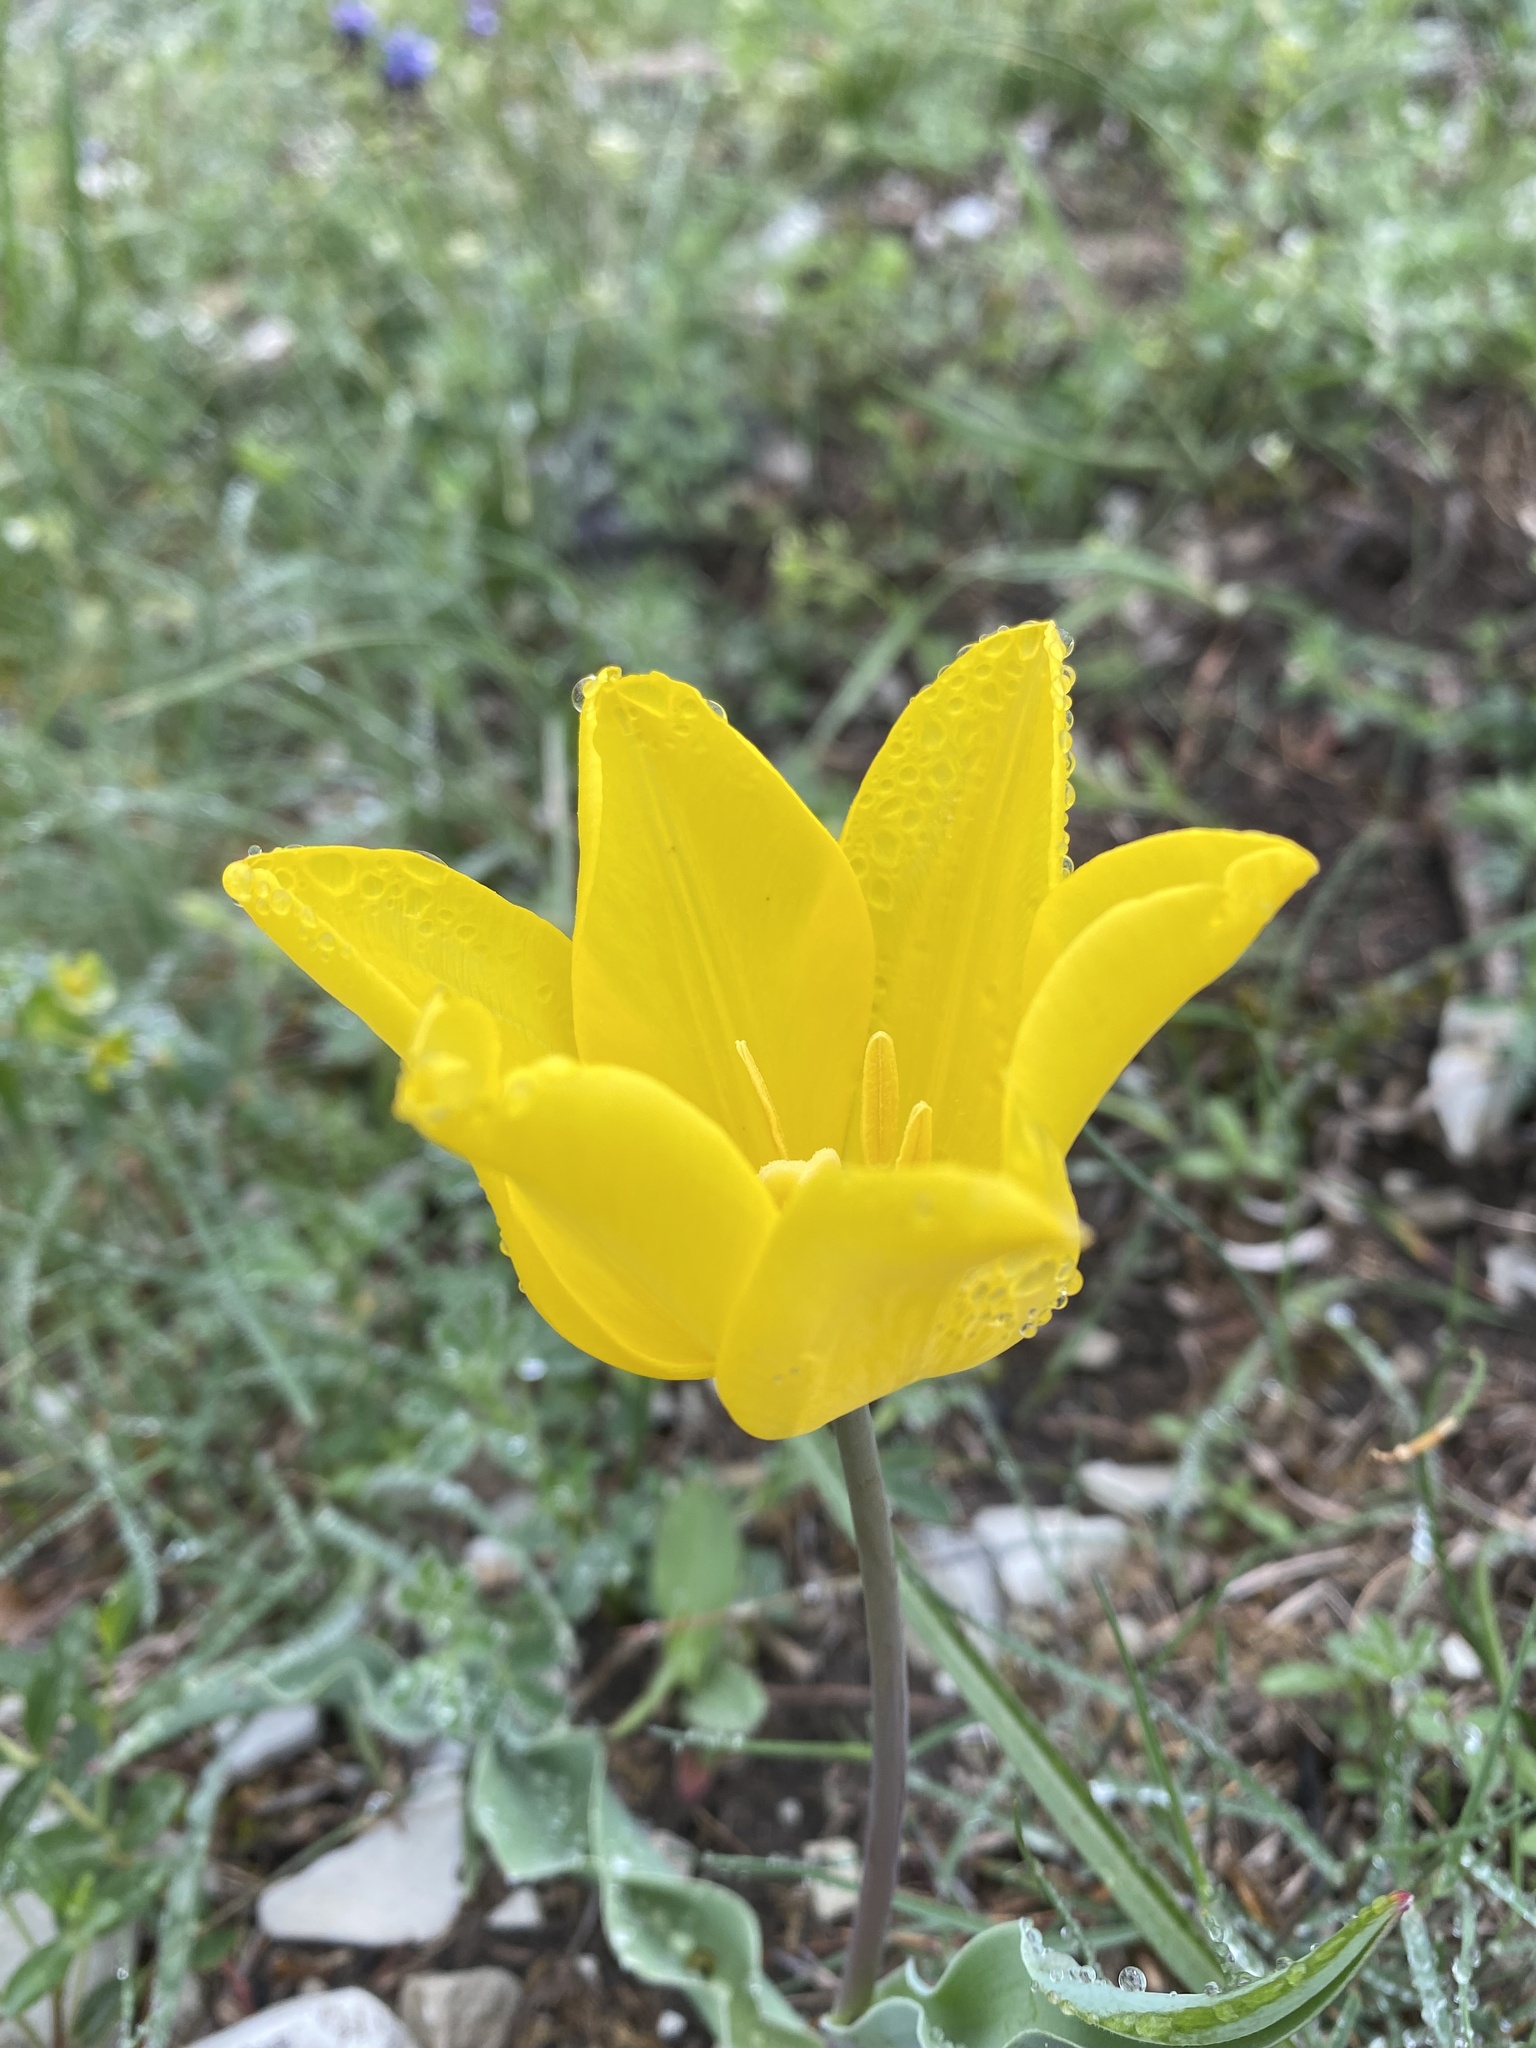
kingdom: Plantae
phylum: Tracheophyta
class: Liliopsida
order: Liliales
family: Liliaceae
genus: Tulipa
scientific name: Tulipa suaveolens
